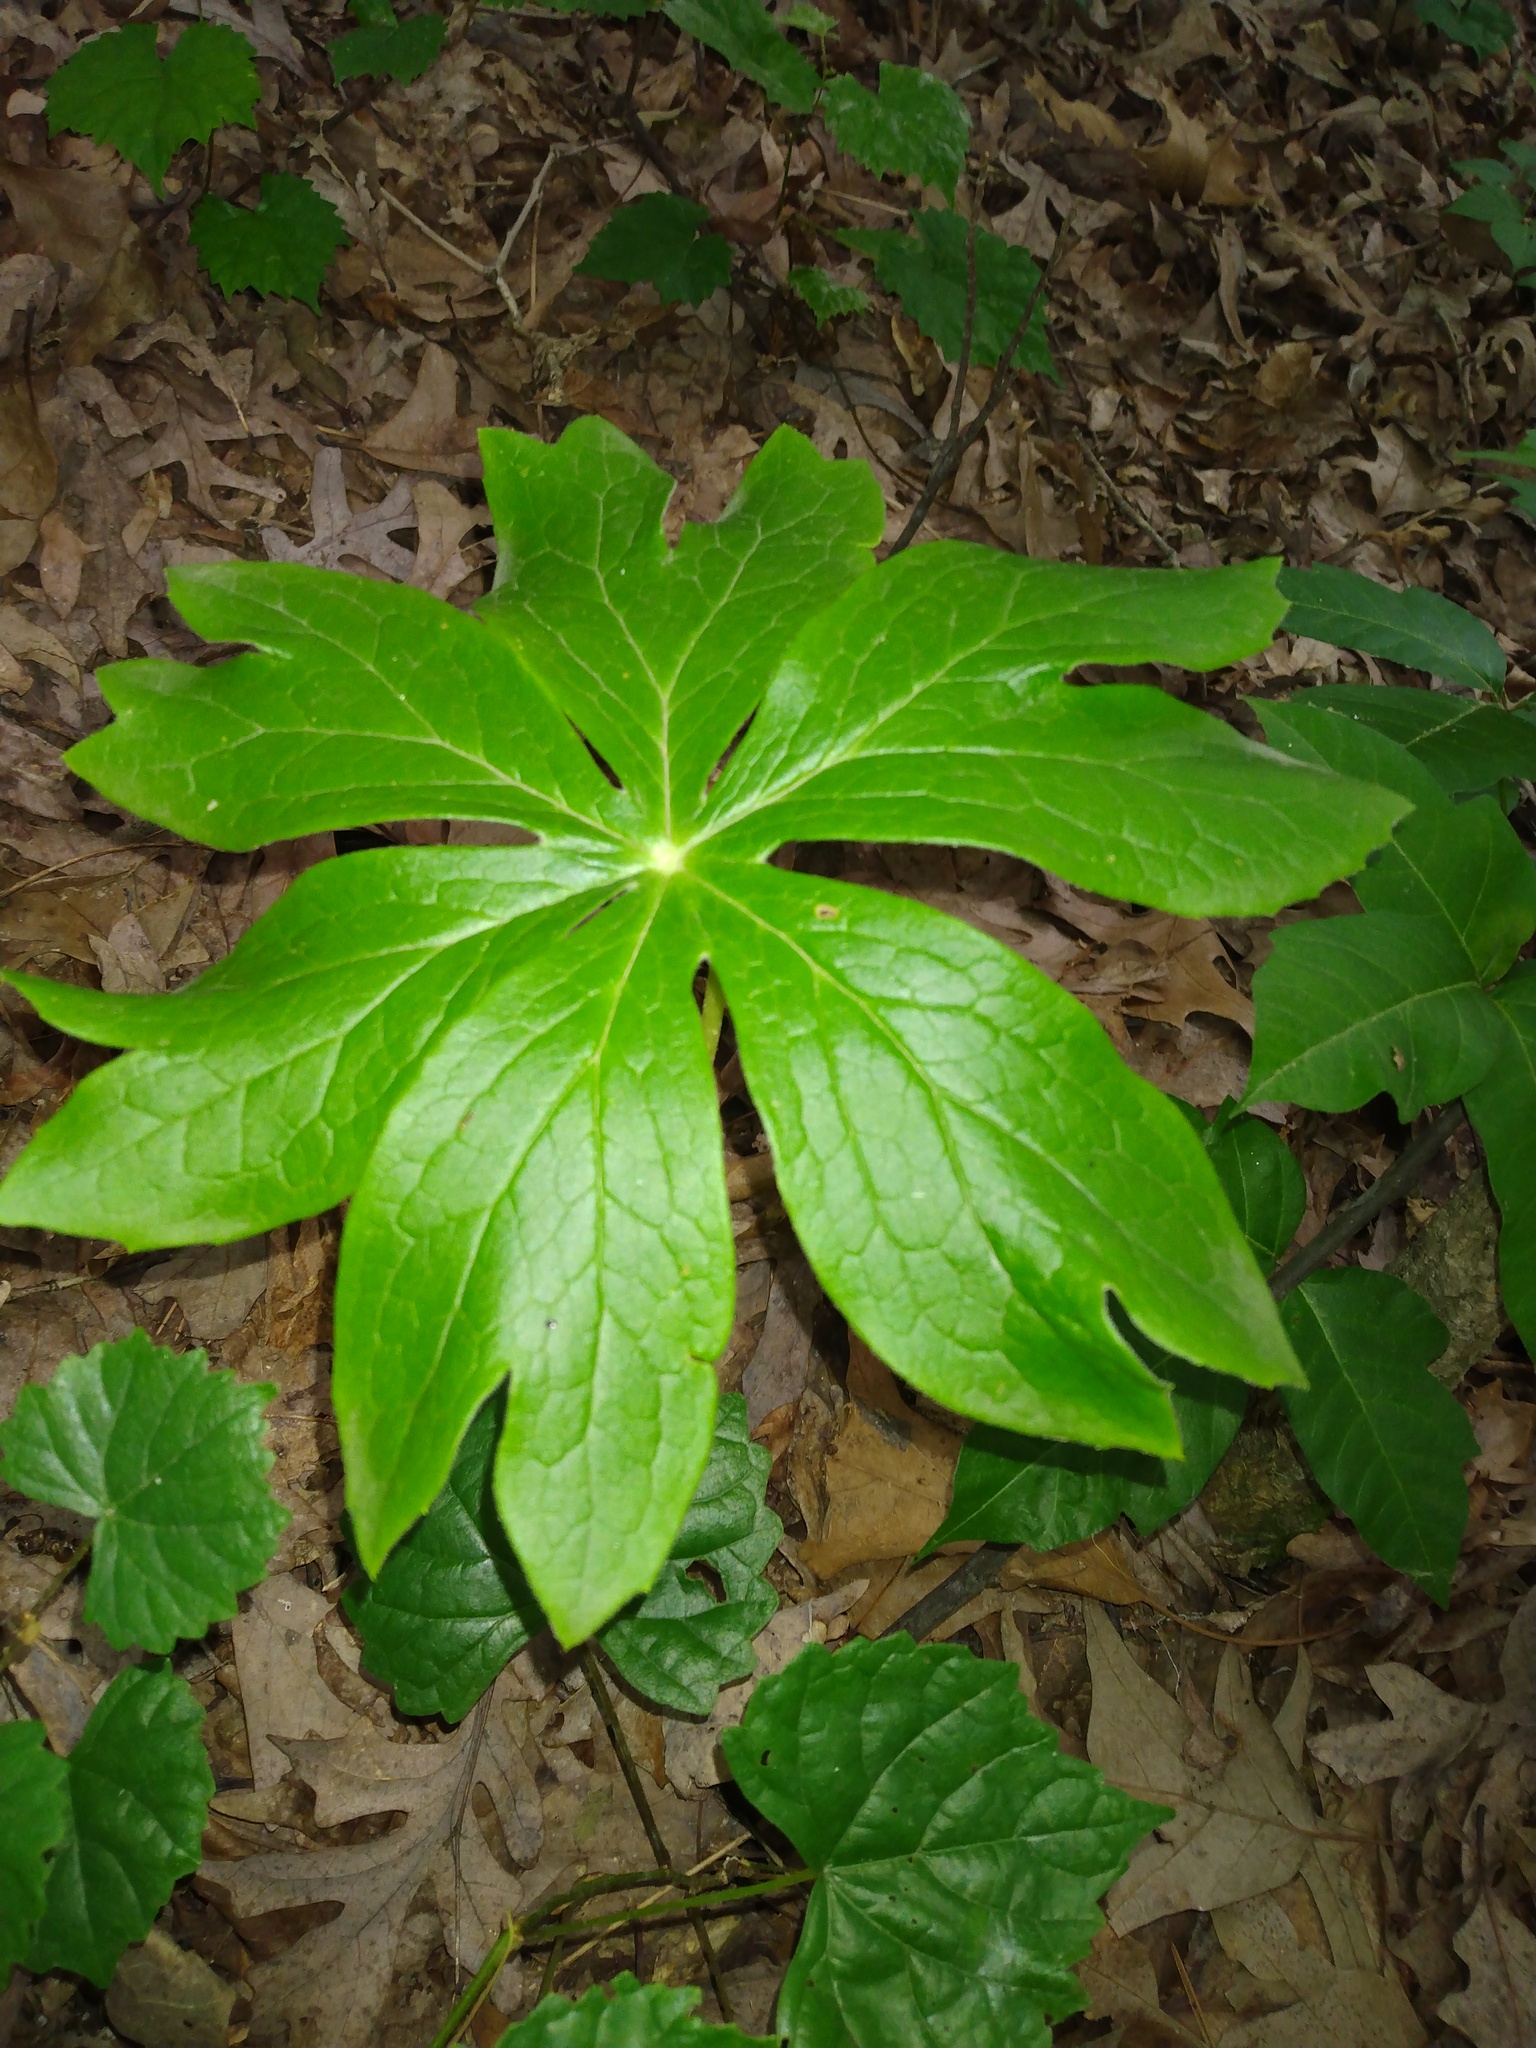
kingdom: Plantae
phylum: Tracheophyta
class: Magnoliopsida
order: Ranunculales
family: Berberidaceae
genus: Podophyllum
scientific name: Podophyllum peltatum
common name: Wild mandrake
